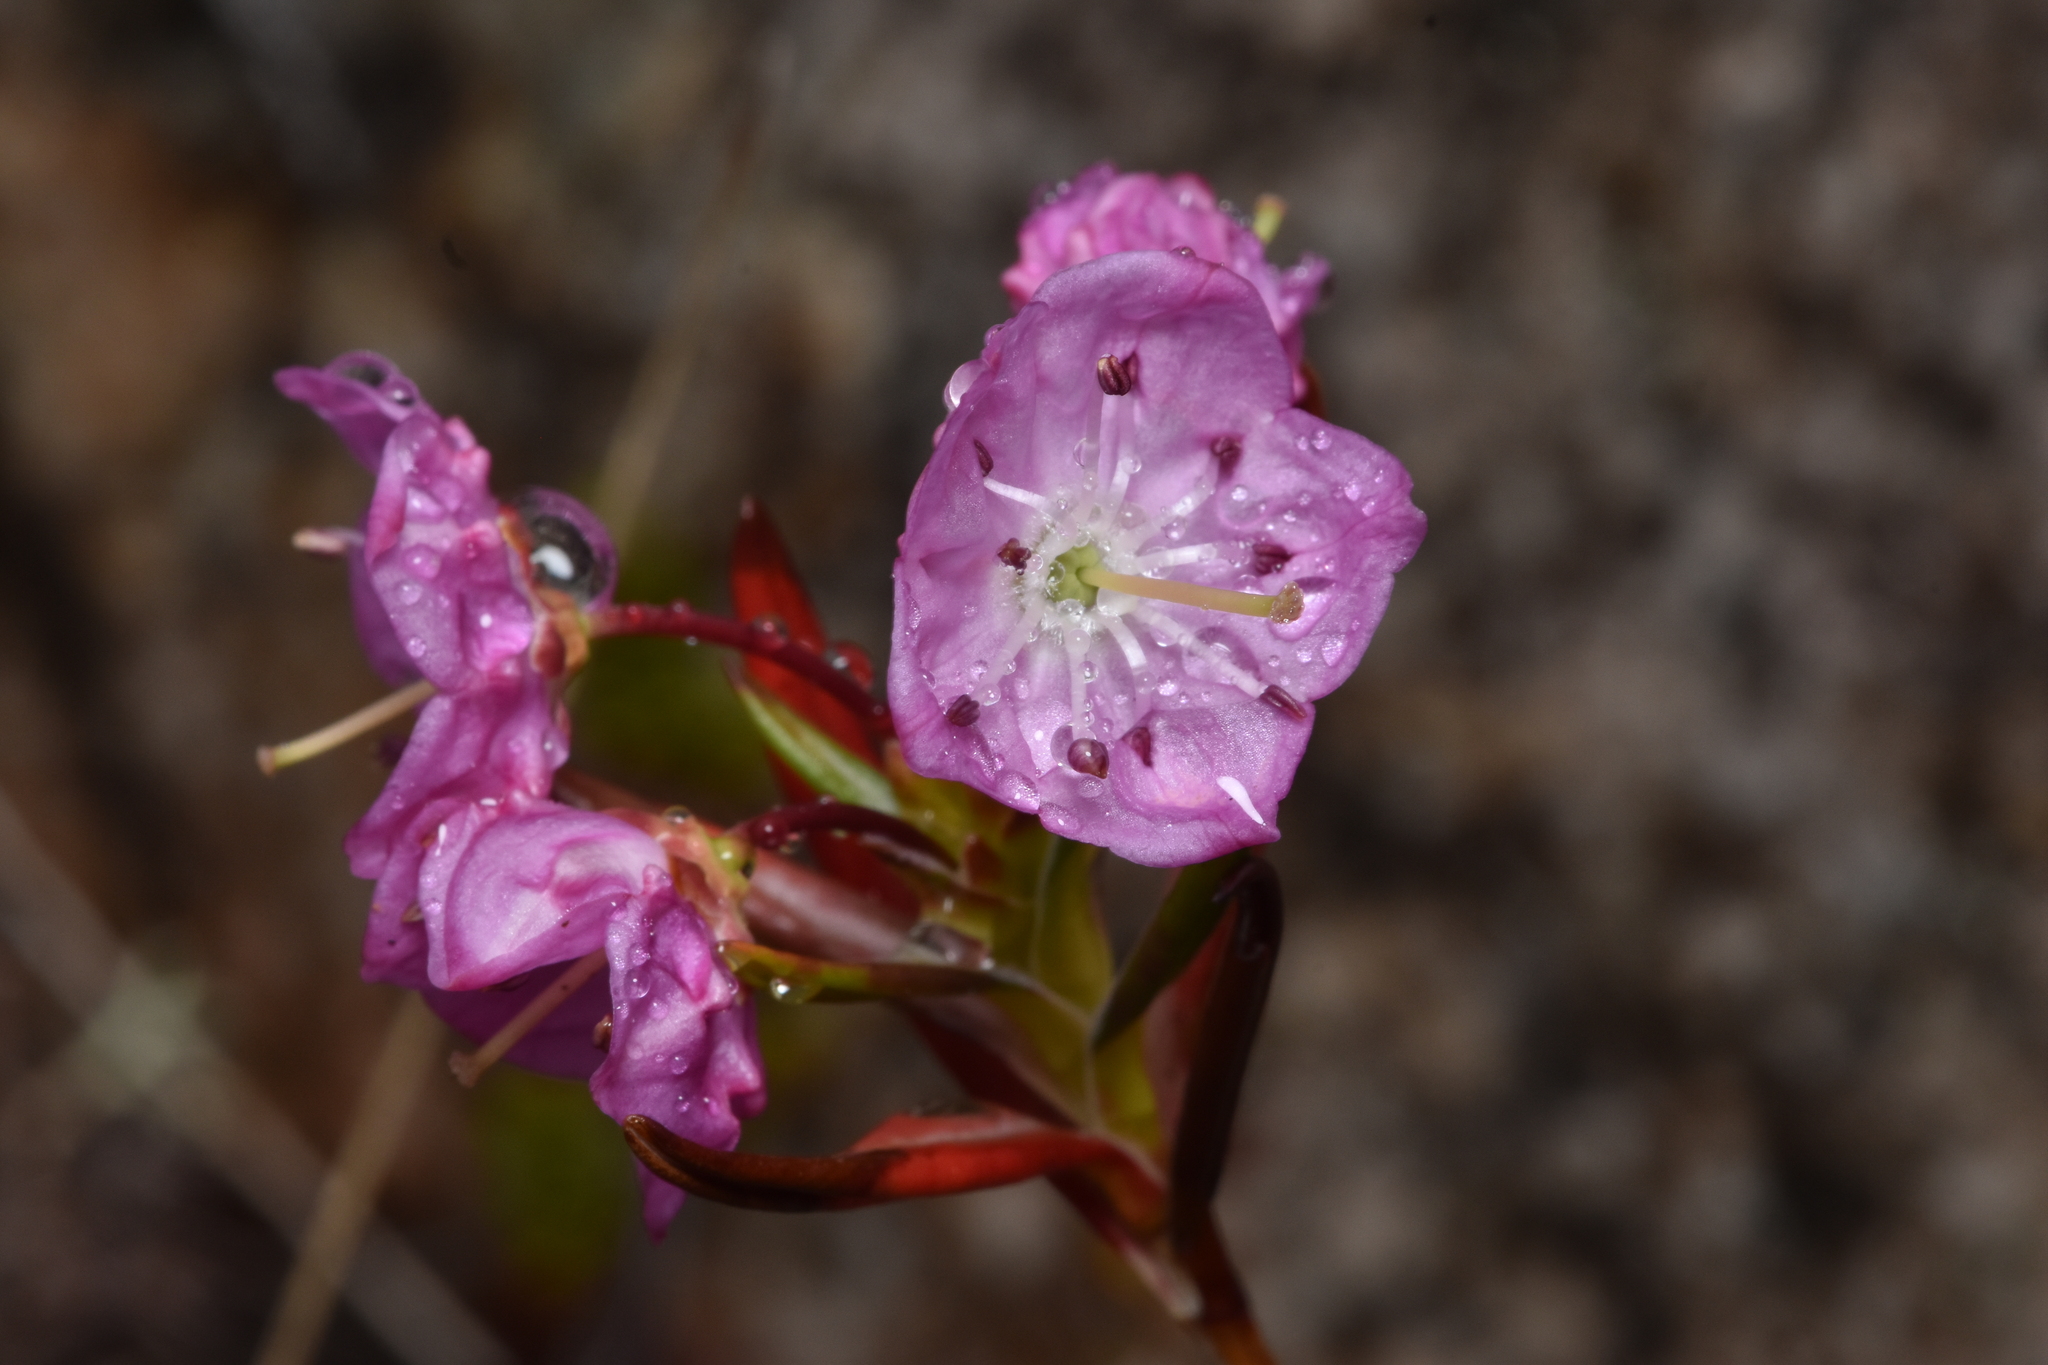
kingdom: Plantae
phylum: Tracheophyta
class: Magnoliopsida
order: Ericales
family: Ericaceae
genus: Kalmia
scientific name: Kalmia microphylla
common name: Alpine bog laurel
